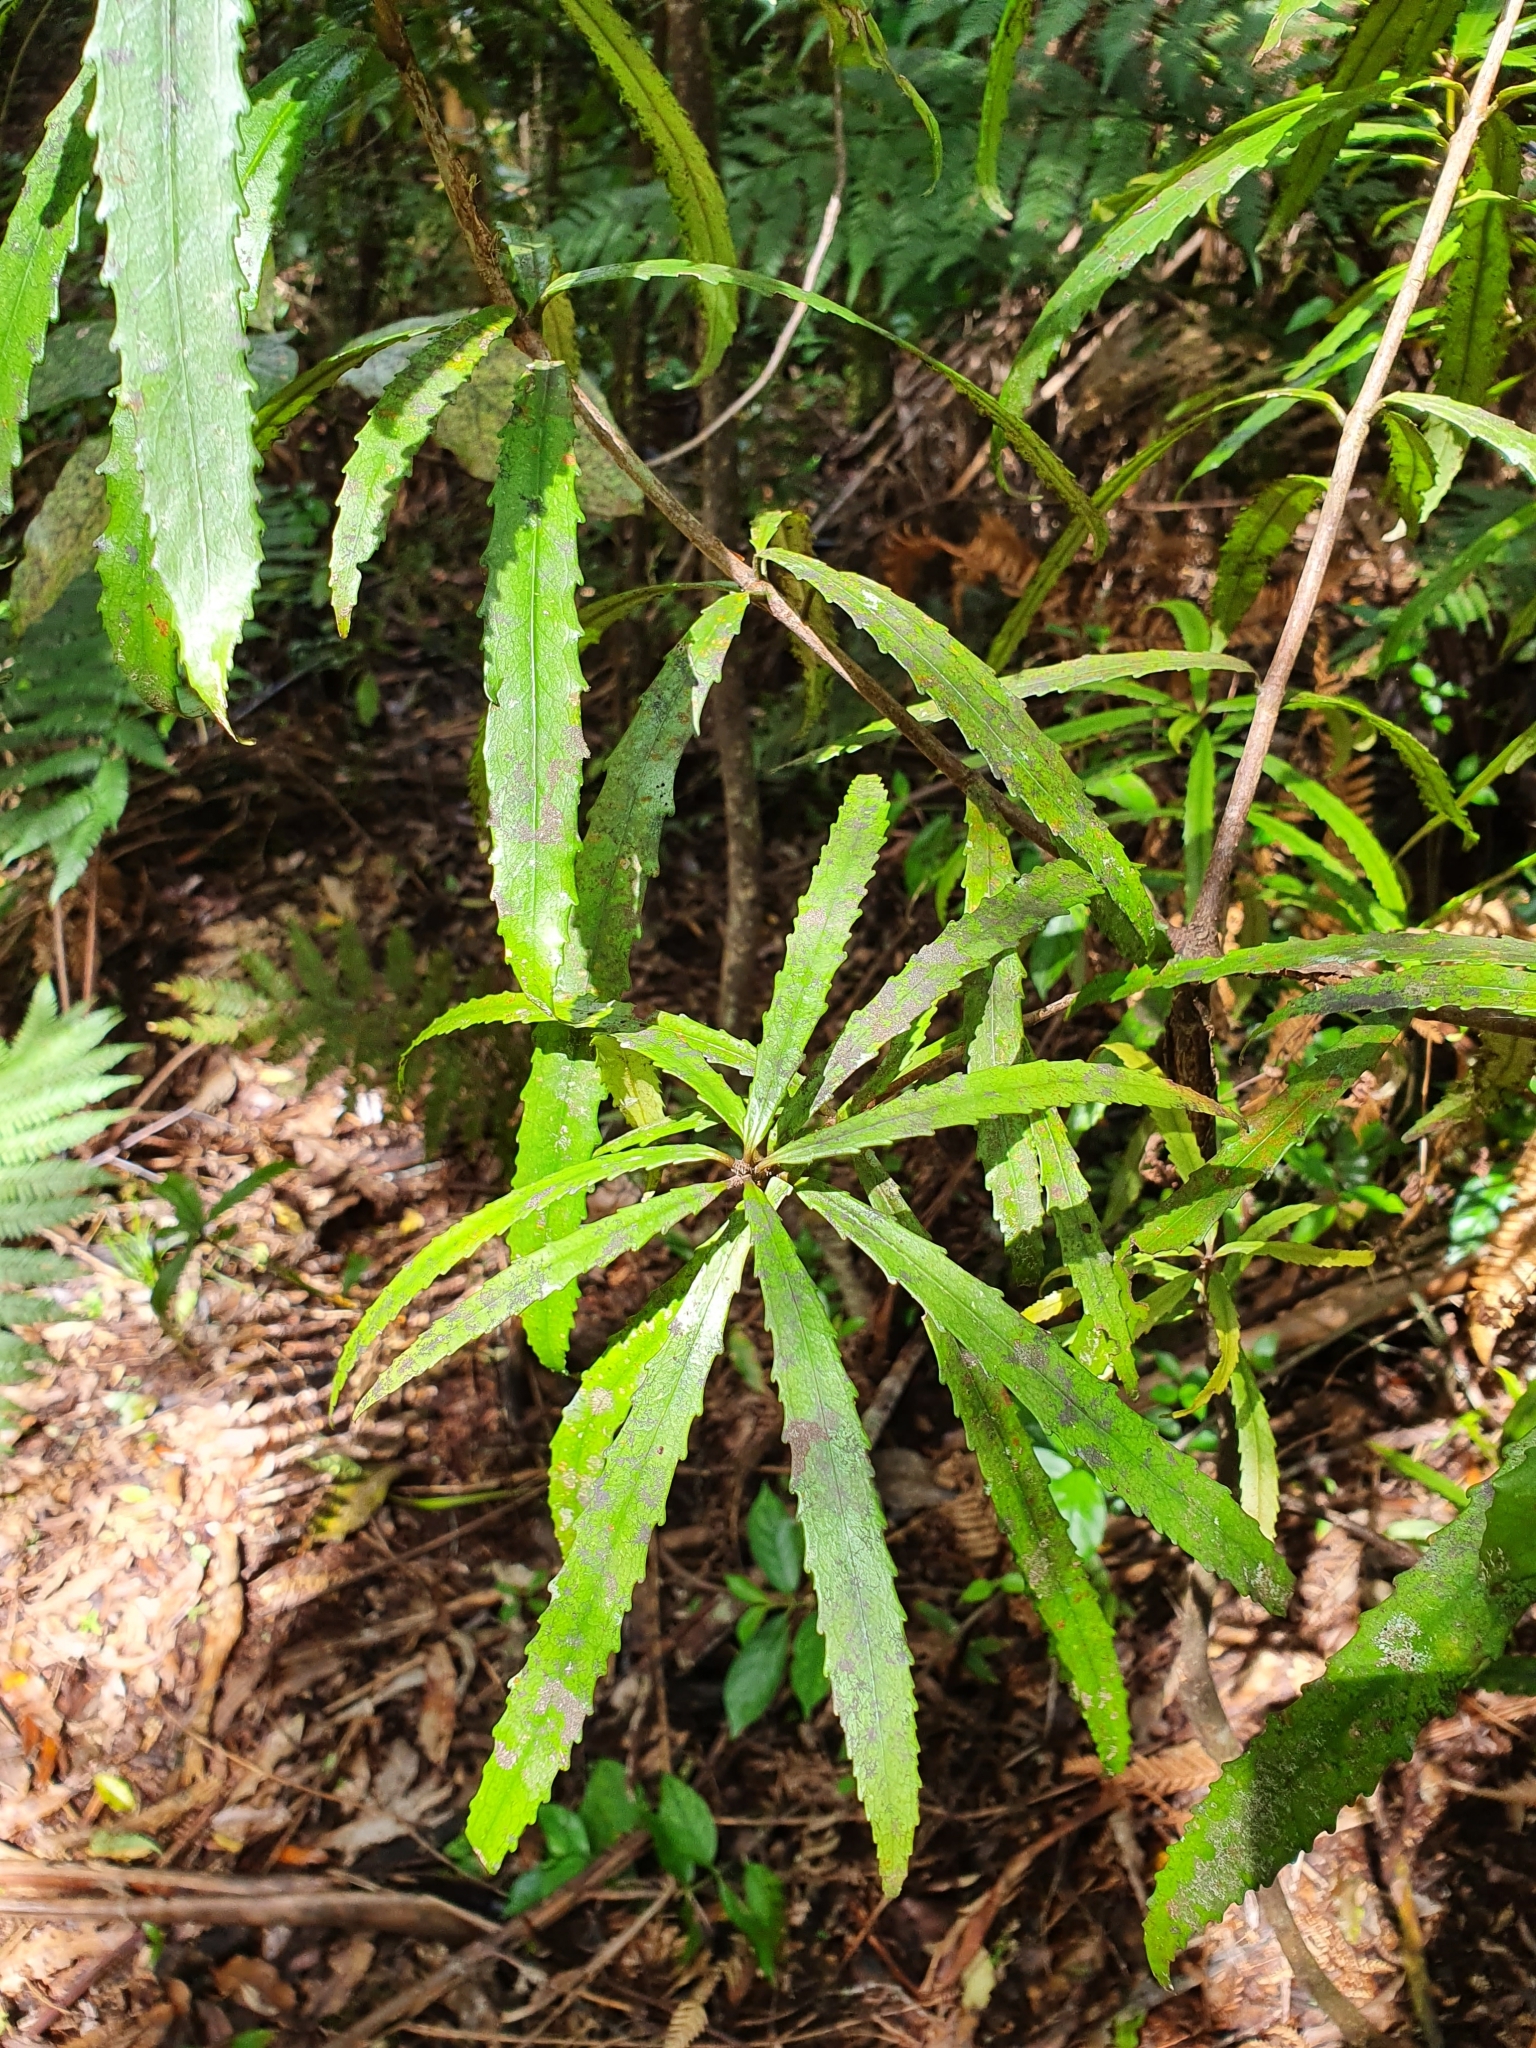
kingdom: Plantae
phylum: Tracheophyta
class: Magnoliopsida
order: Crossosomatales
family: Ixerbaceae
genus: Ixerba
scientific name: Ixerba brexioides
